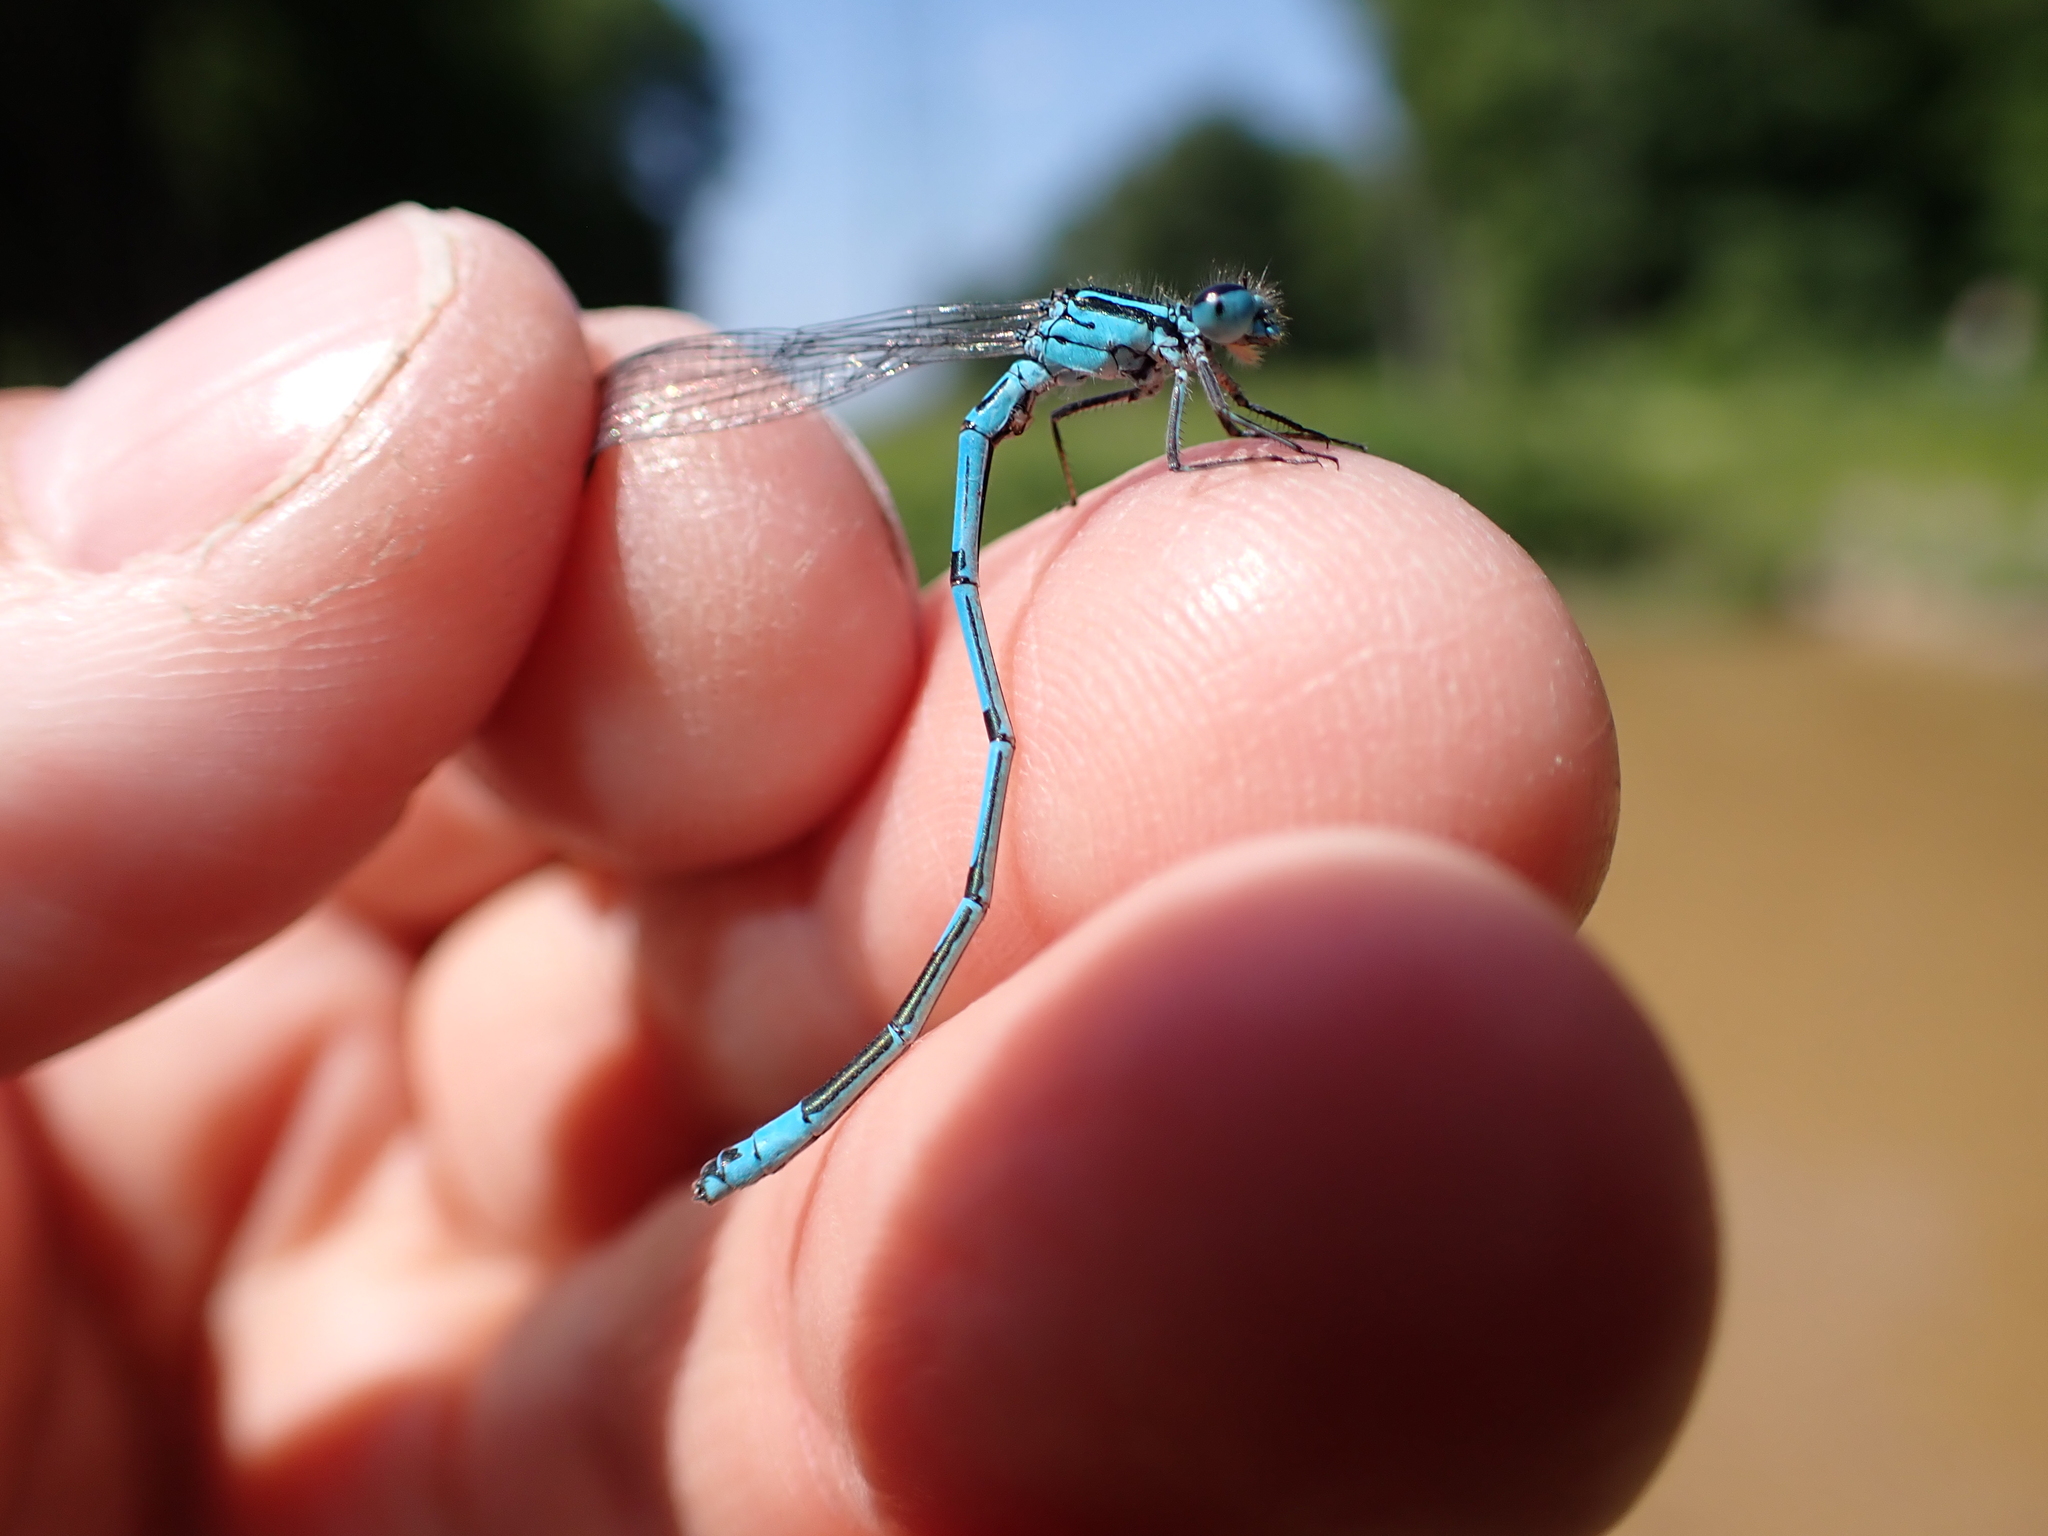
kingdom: Animalia
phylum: Arthropoda
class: Insecta
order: Odonata
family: Coenagrionidae
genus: Coenagrion
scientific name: Coenagrion puella
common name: Azure damselfly
